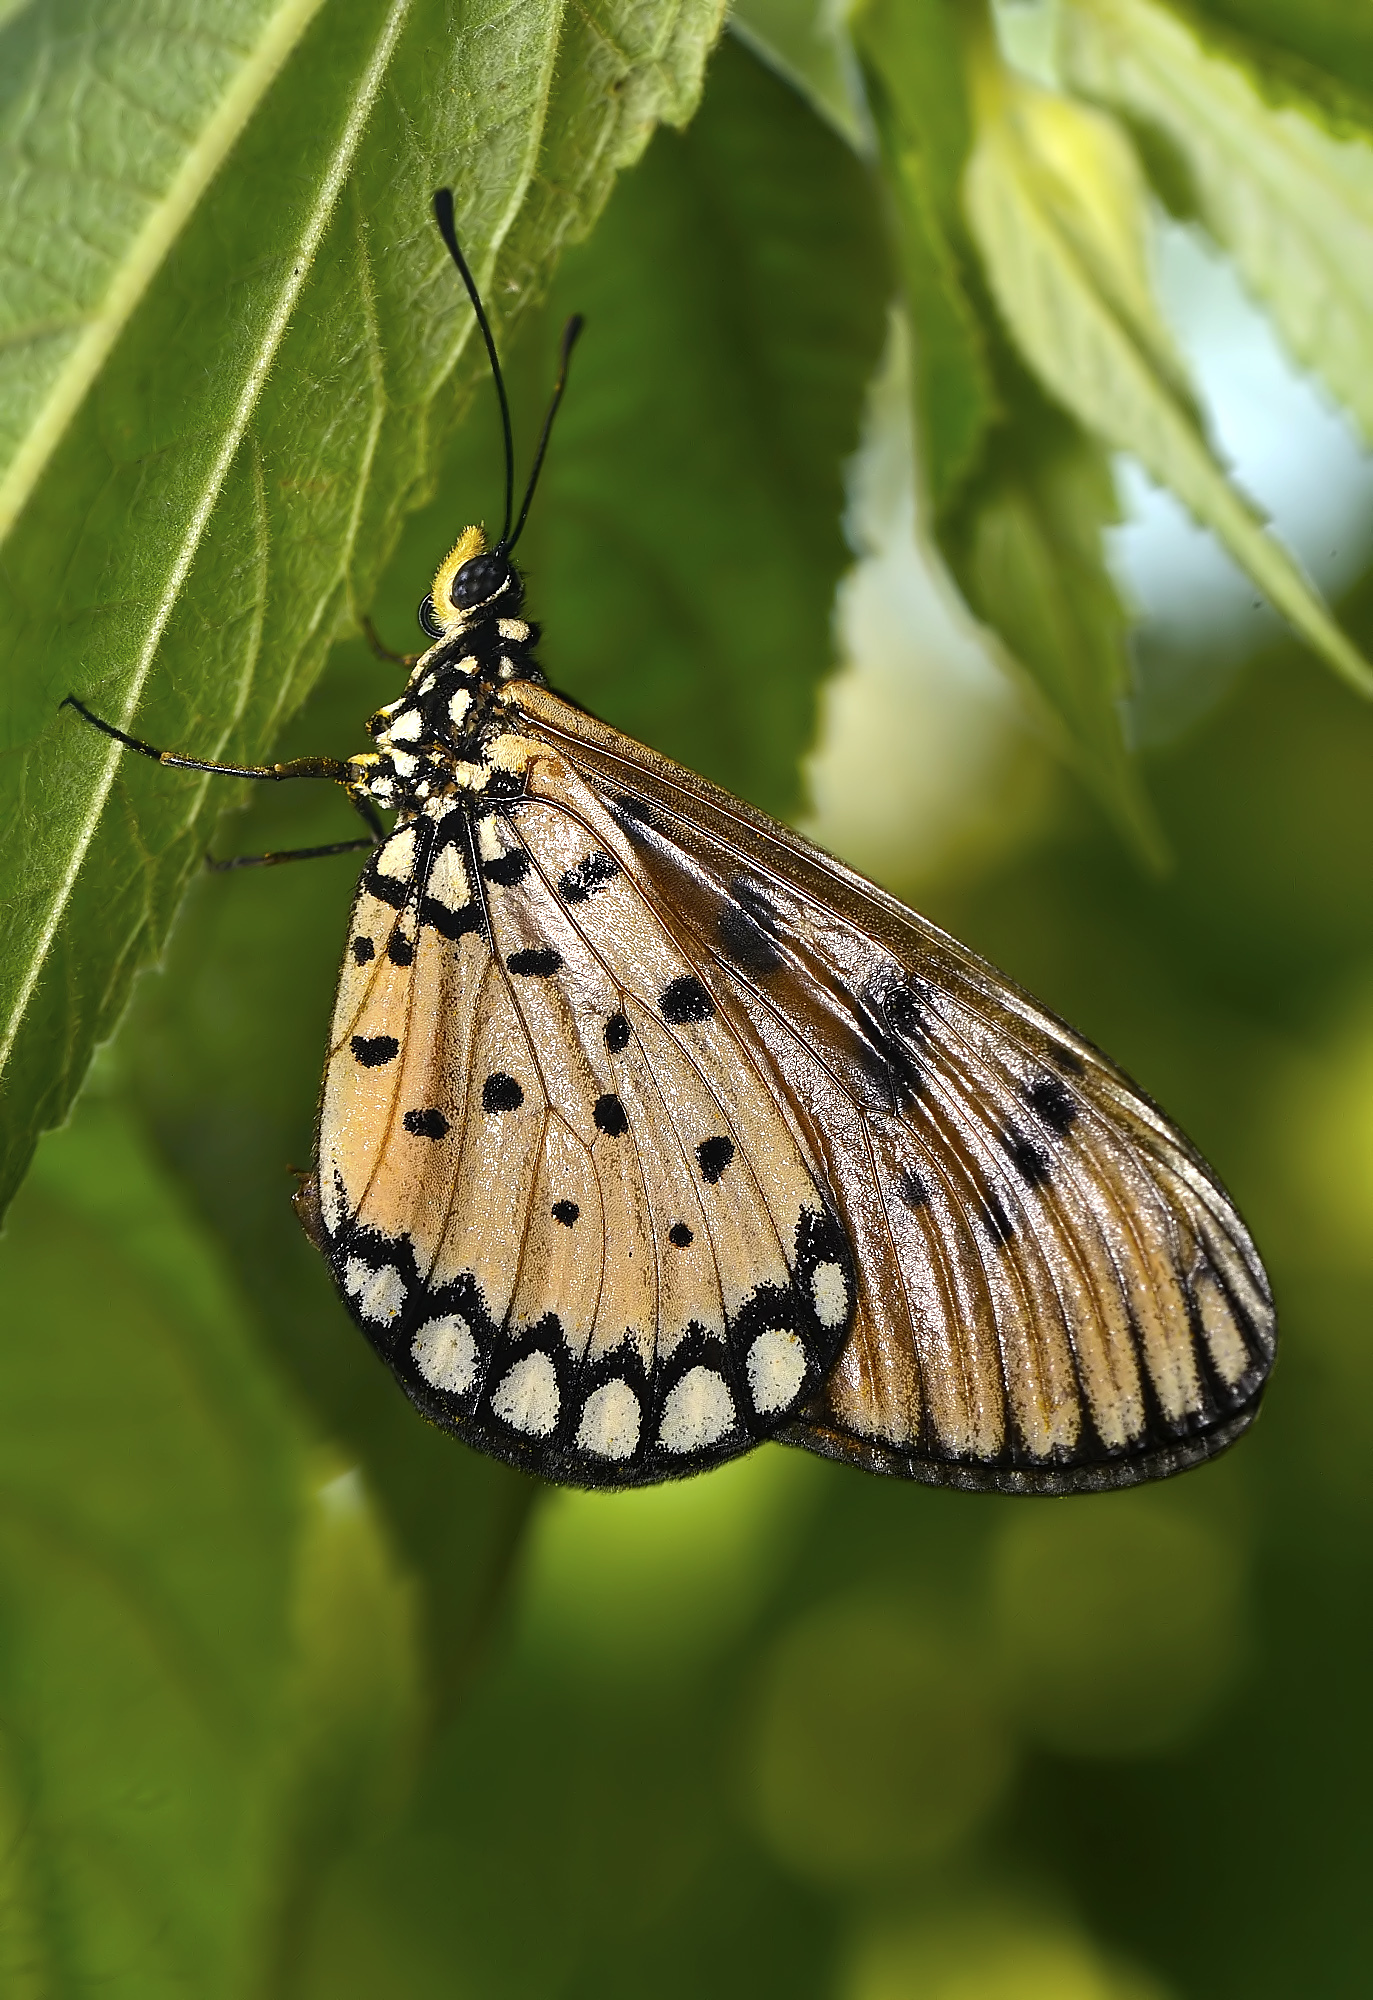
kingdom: Animalia
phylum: Arthropoda
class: Insecta
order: Lepidoptera
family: Nymphalidae
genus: Acraea
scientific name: Acraea terpsicore
